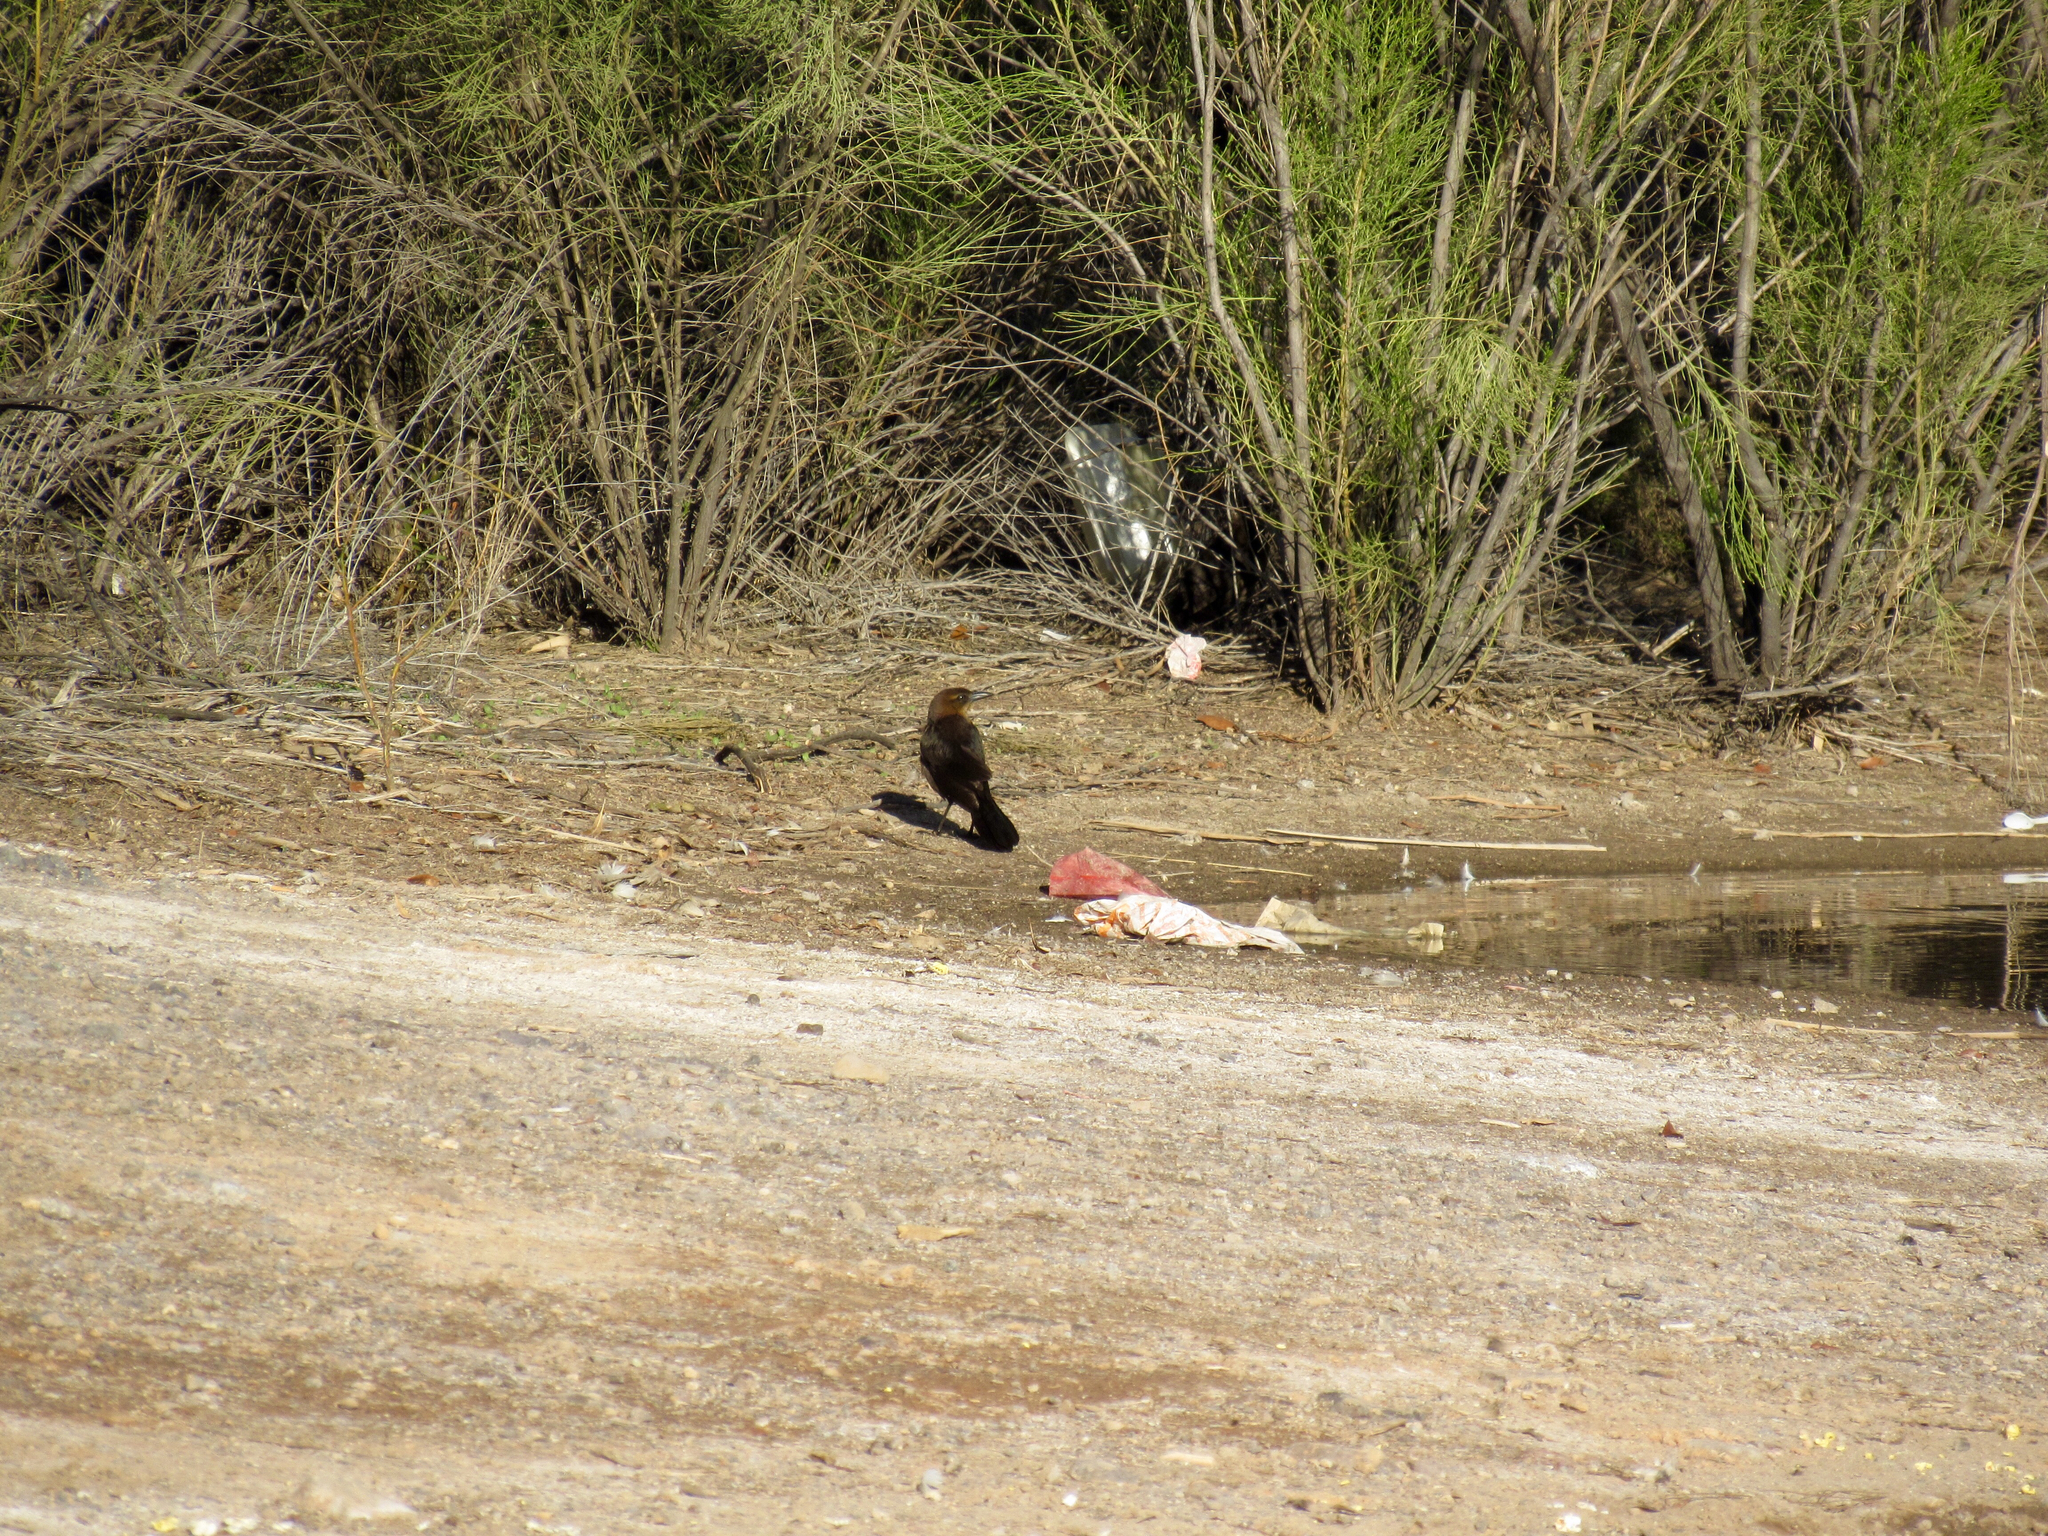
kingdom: Animalia
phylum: Chordata
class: Aves
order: Passeriformes
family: Icteridae
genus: Quiscalus
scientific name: Quiscalus mexicanus
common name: Great-tailed grackle
